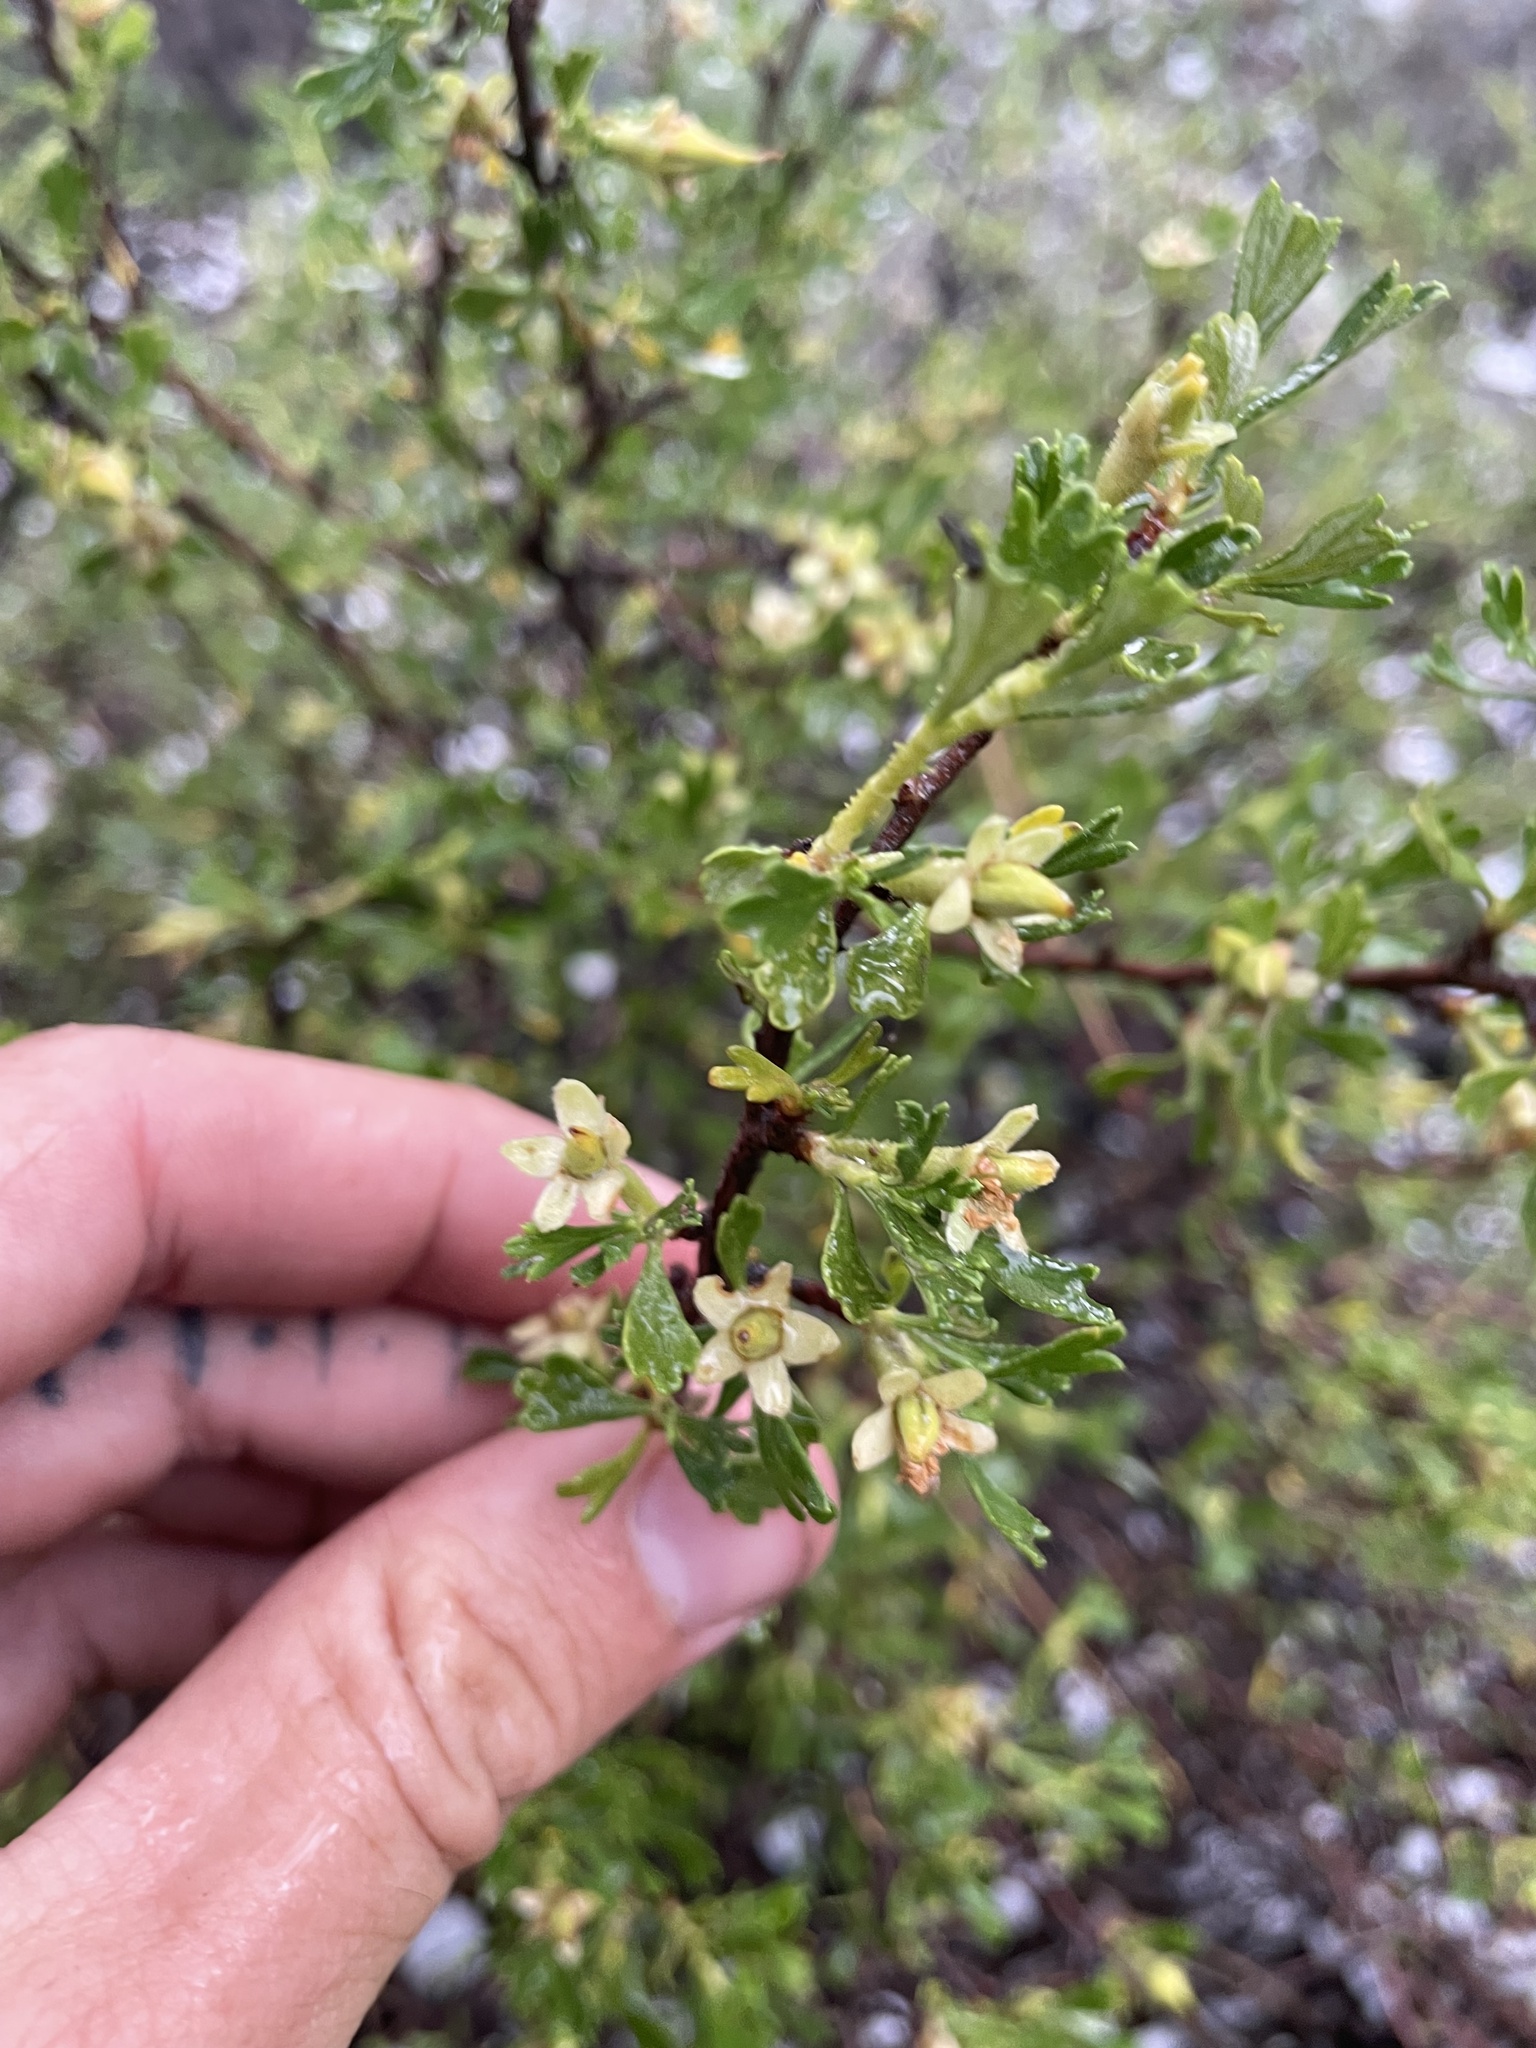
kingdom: Plantae
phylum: Tracheophyta
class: Magnoliopsida
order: Rosales
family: Rosaceae
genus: Purshia
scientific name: Purshia tridentata
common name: Antelope bitterbrush
